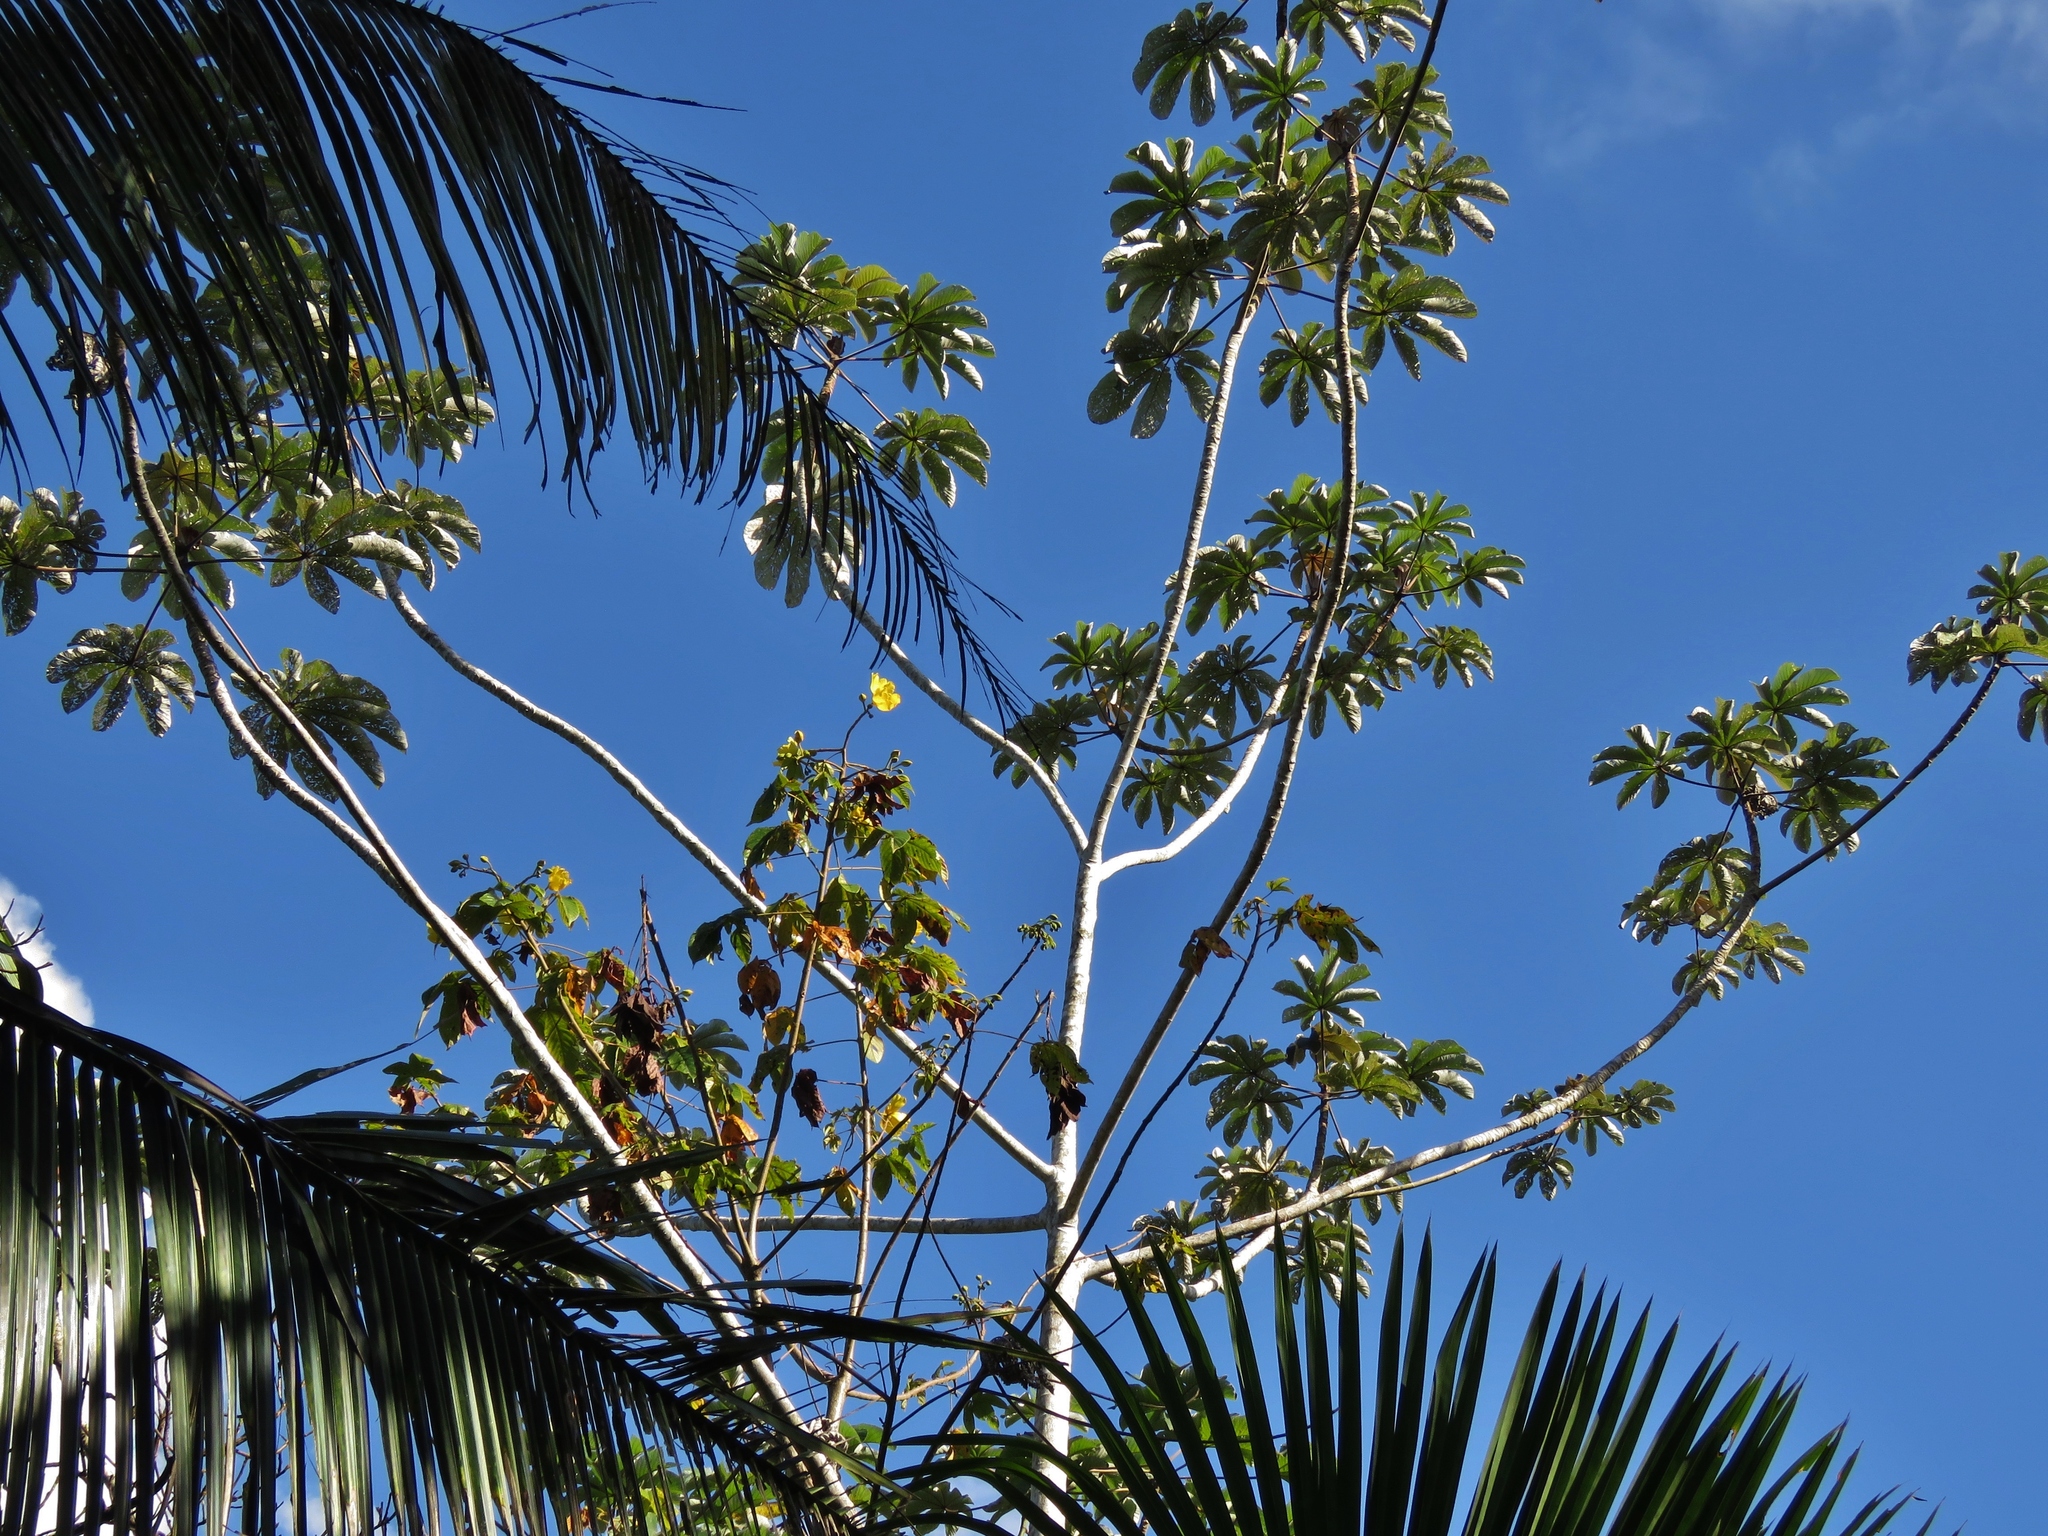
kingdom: Plantae
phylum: Tracheophyta
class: Magnoliopsida
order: Malvales
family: Cochlospermaceae
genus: Cochlospermum
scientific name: Cochlospermum vitifolium
